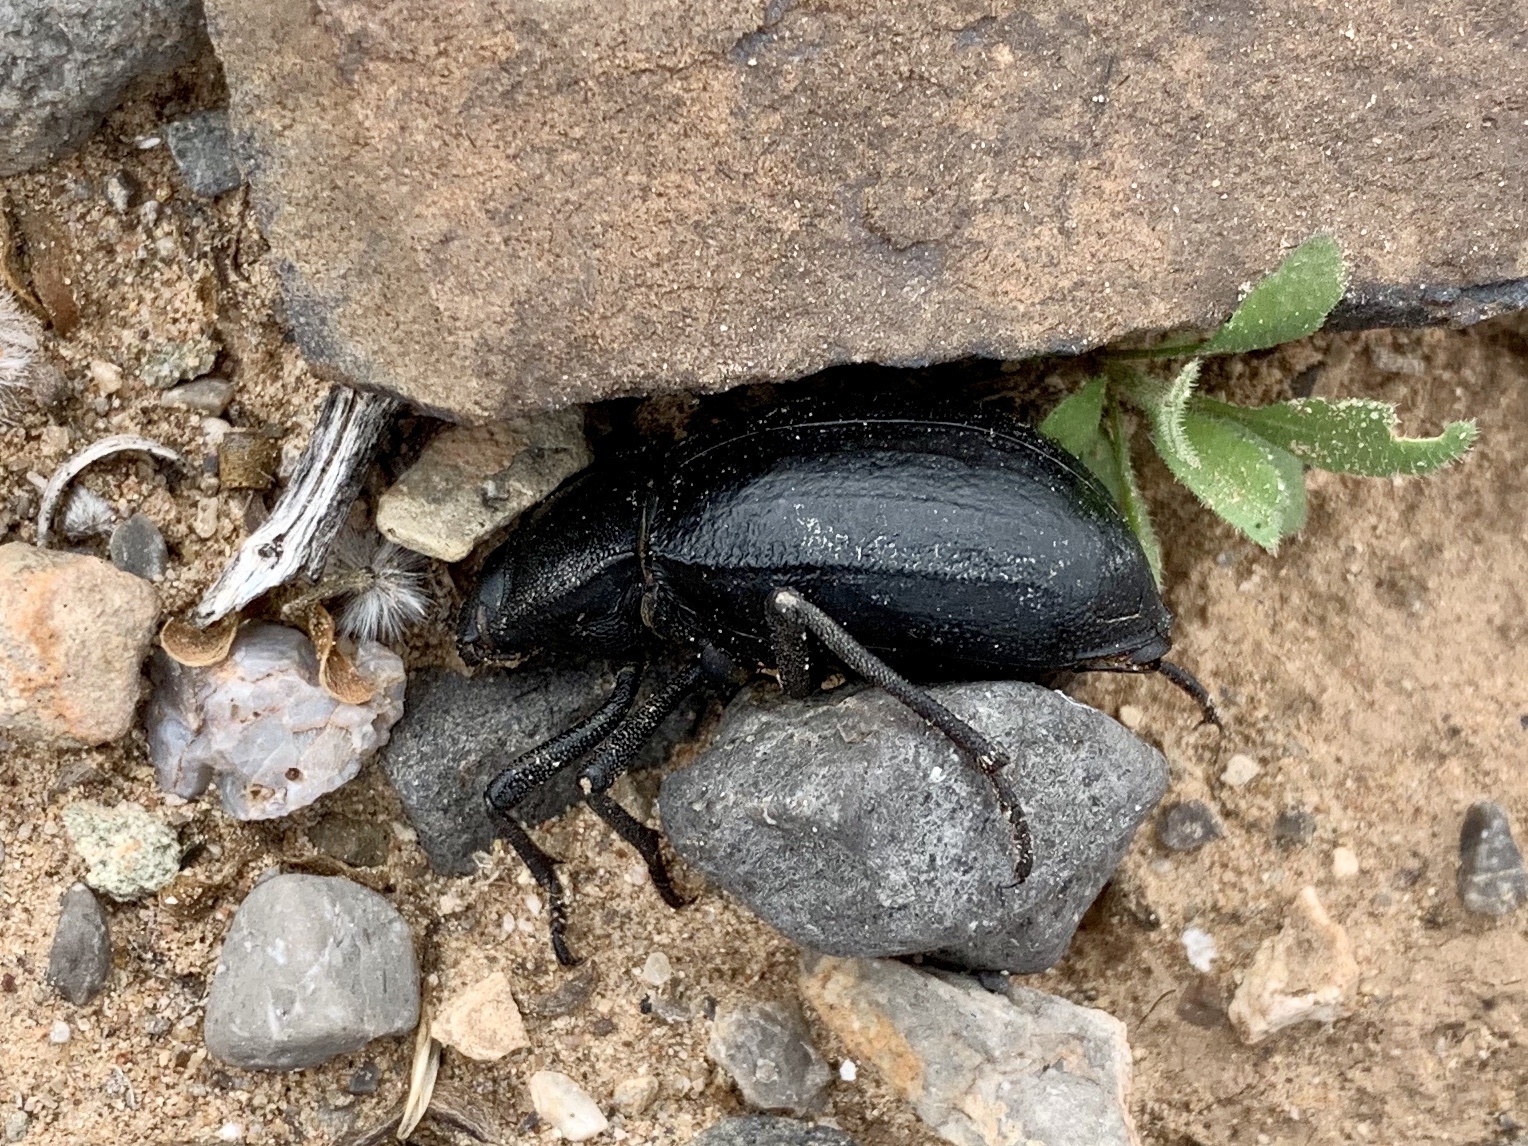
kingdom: Animalia
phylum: Arthropoda
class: Insecta
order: Coleoptera
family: Tenebrionidae
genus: Stenomorpha
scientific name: Stenomorpha obliterata
